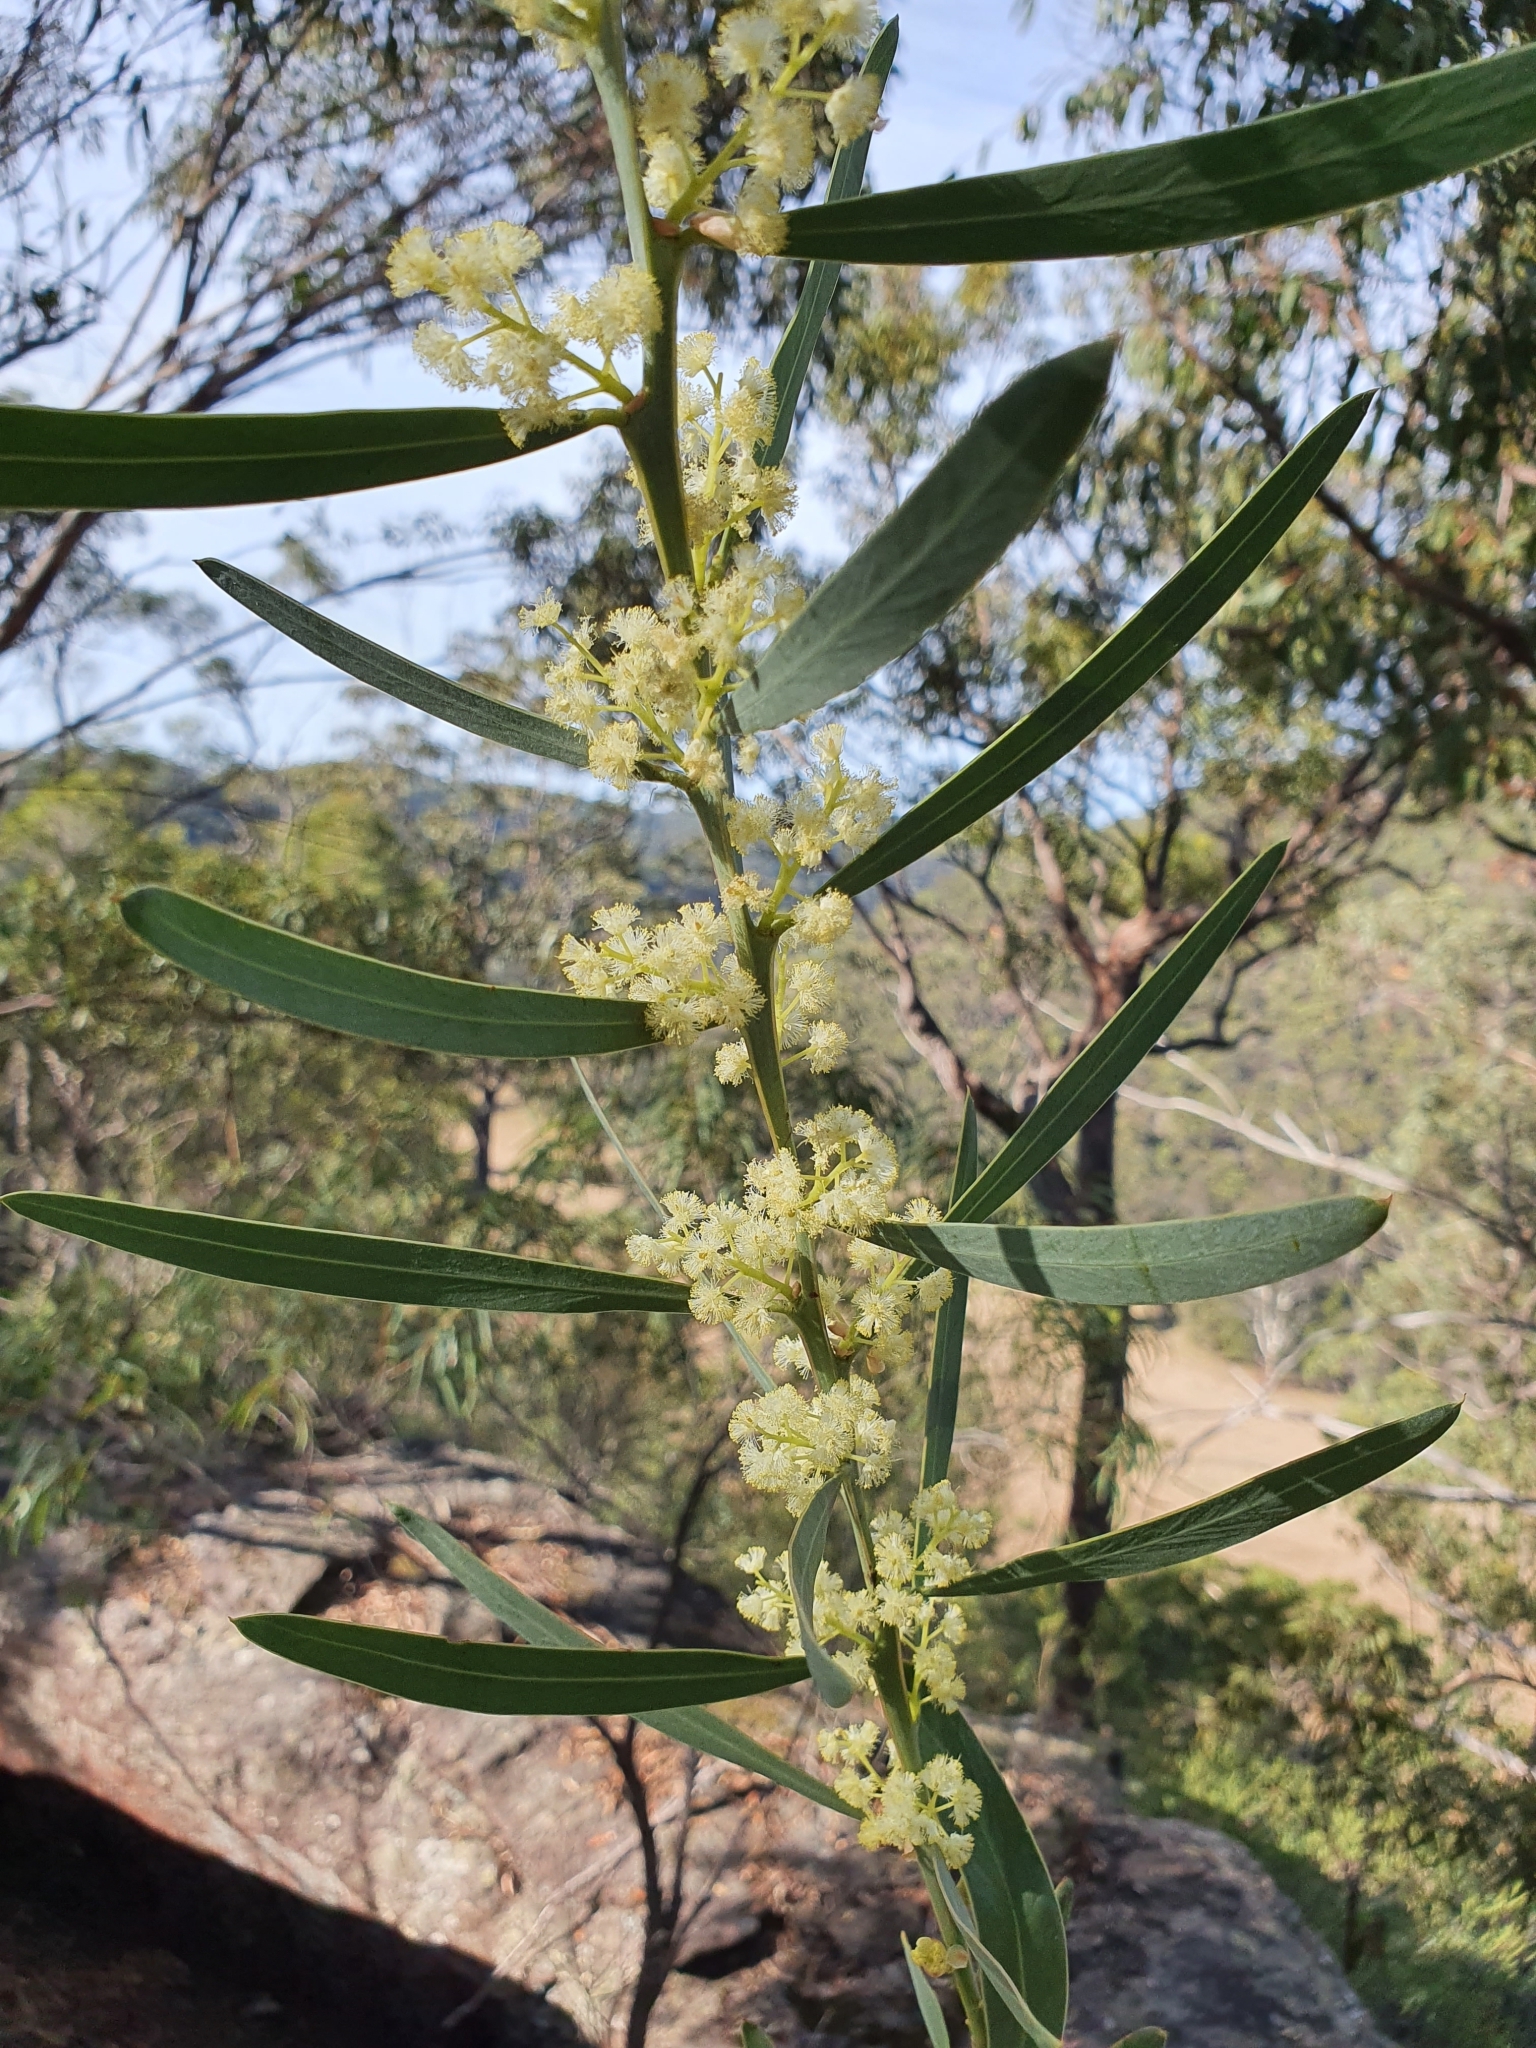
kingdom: Plantae
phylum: Tracheophyta
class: Magnoliopsida
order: Fabales
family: Fabaceae
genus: Acacia
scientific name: Acacia suaveolens
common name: Sweet acacia
